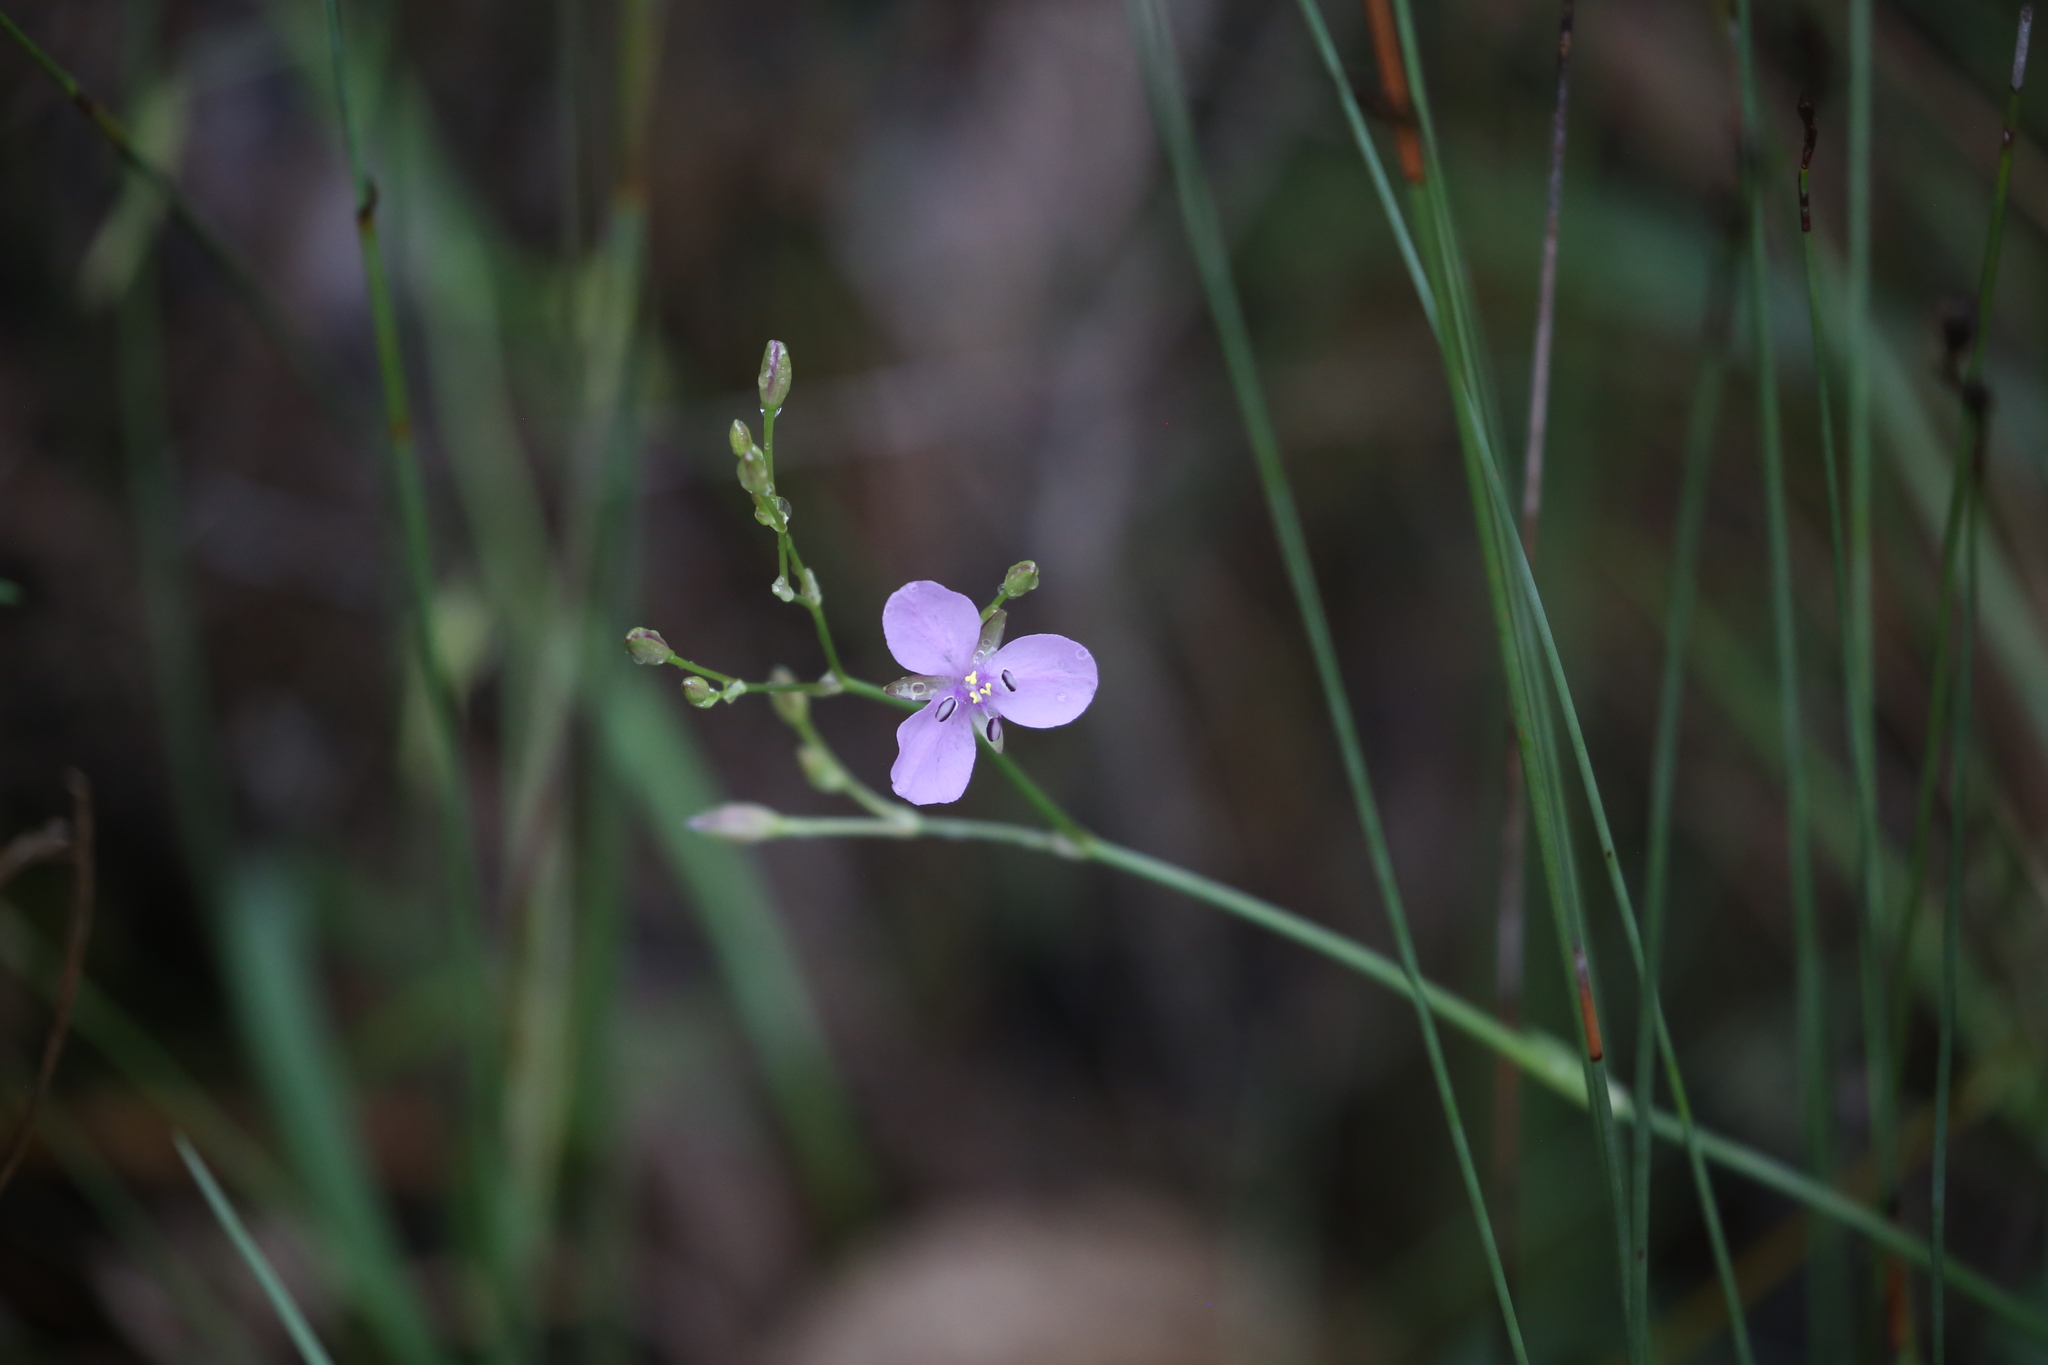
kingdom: Plantae
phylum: Tracheophyta
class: Liliopsida
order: Commelinales
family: Commelinaceae
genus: Murdannia
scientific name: Murdannia graminea
